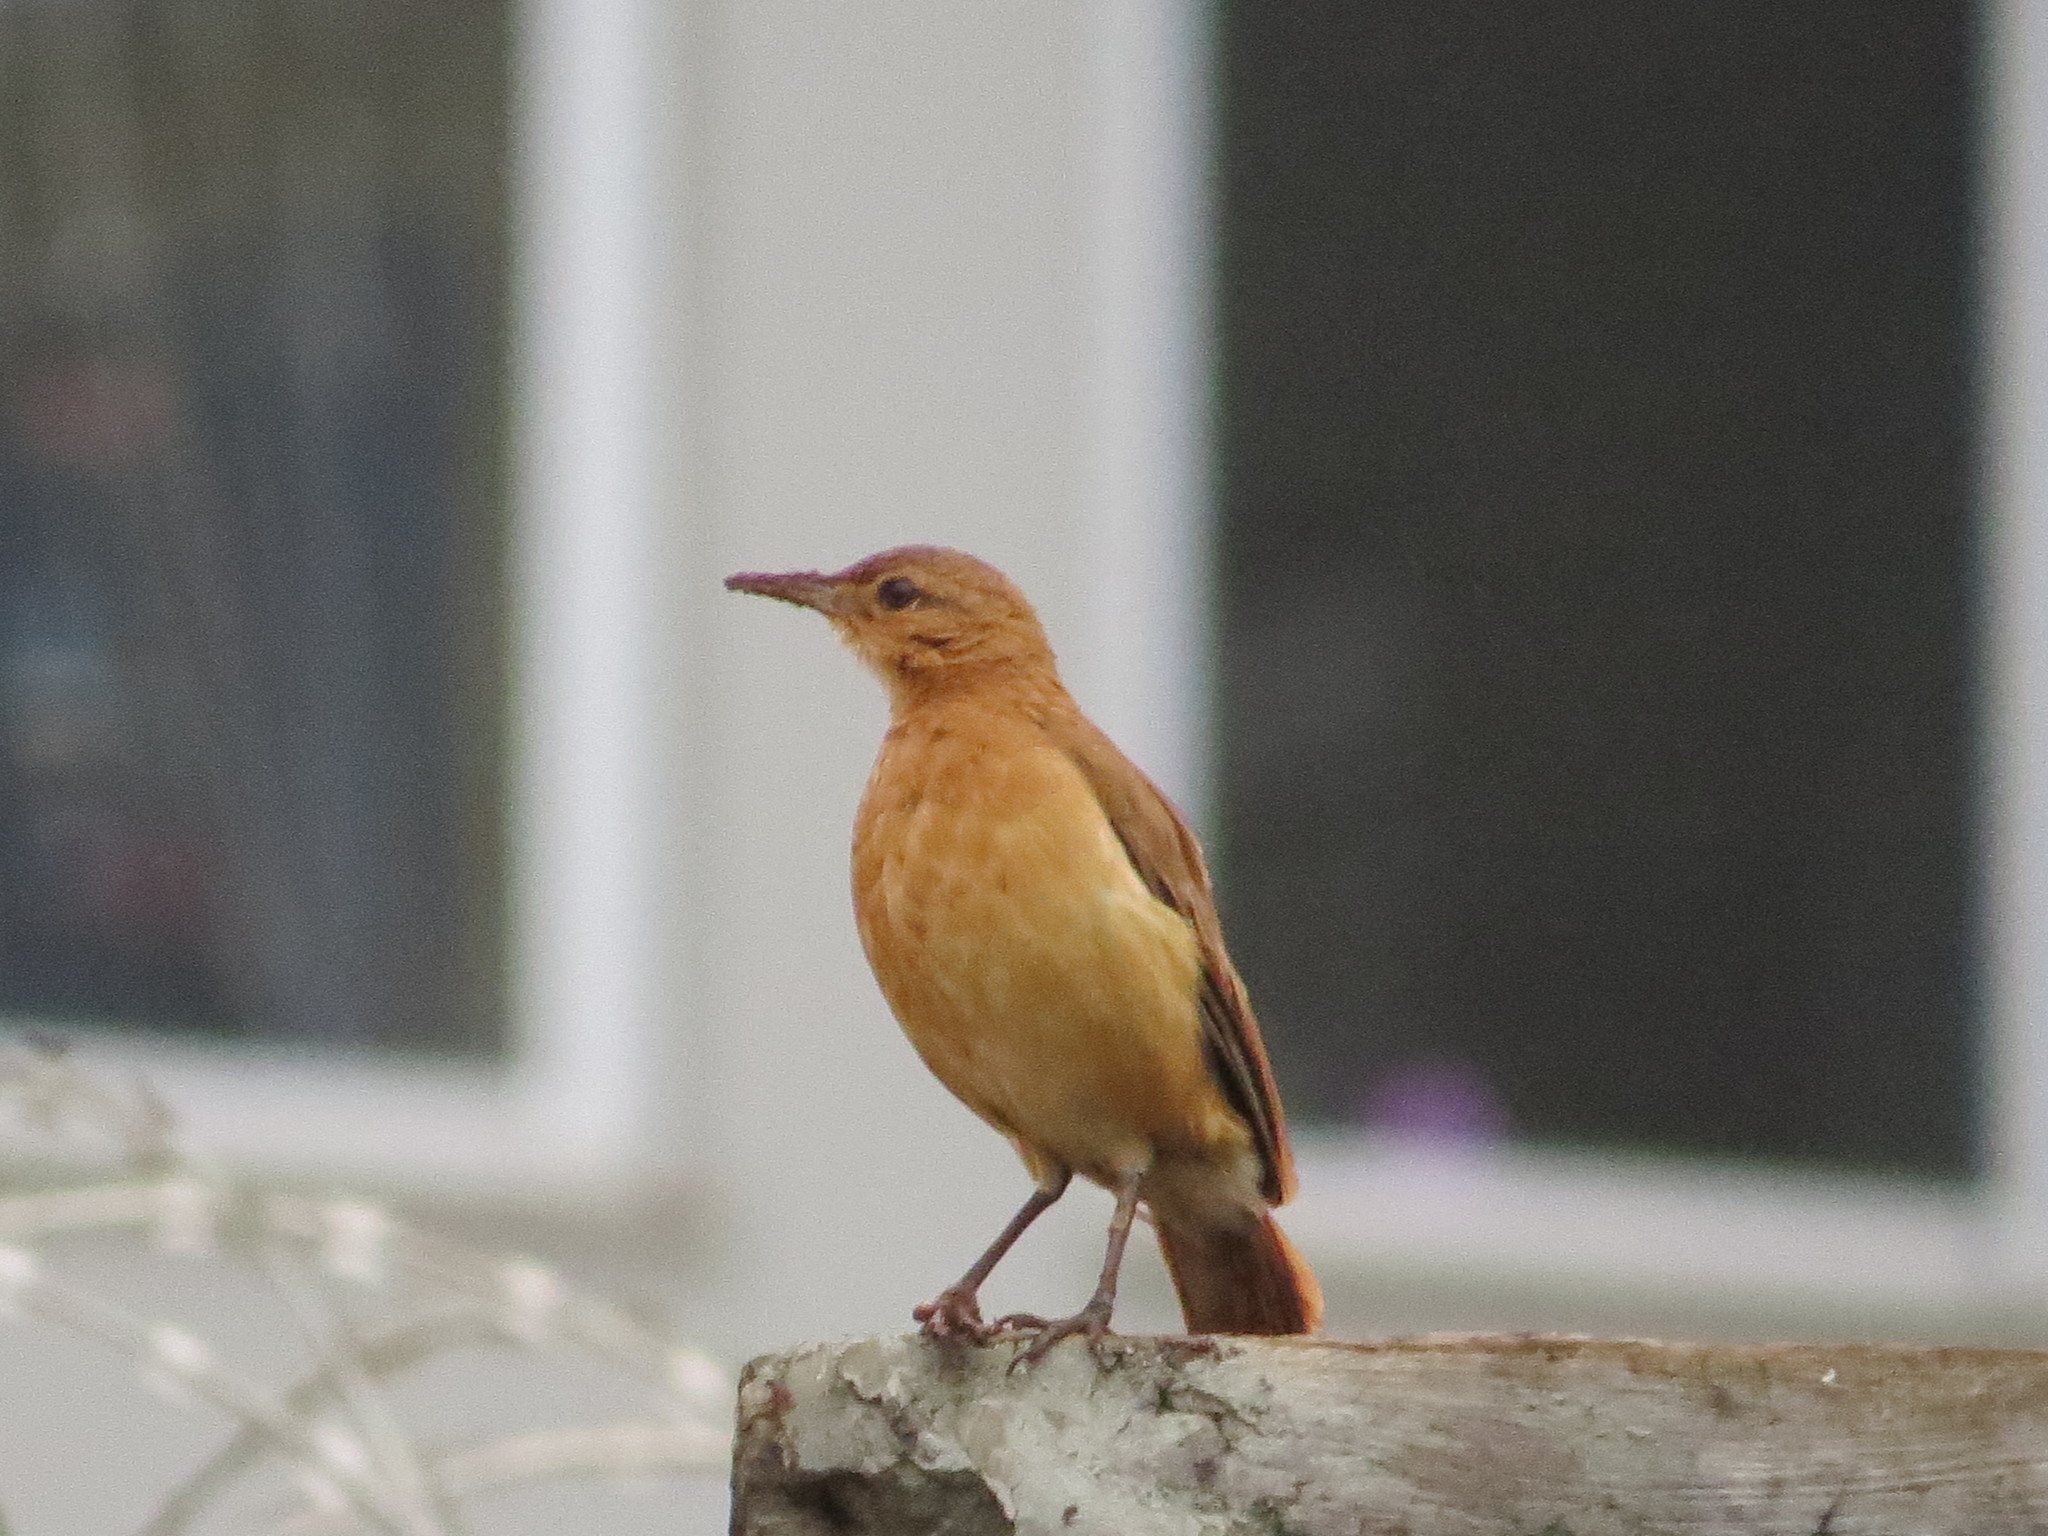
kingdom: Animalia
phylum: Chordata
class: Aves
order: Passeriformes
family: Furnariidae
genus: Furnarius
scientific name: Furnarius rufus
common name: Rufous hornero
